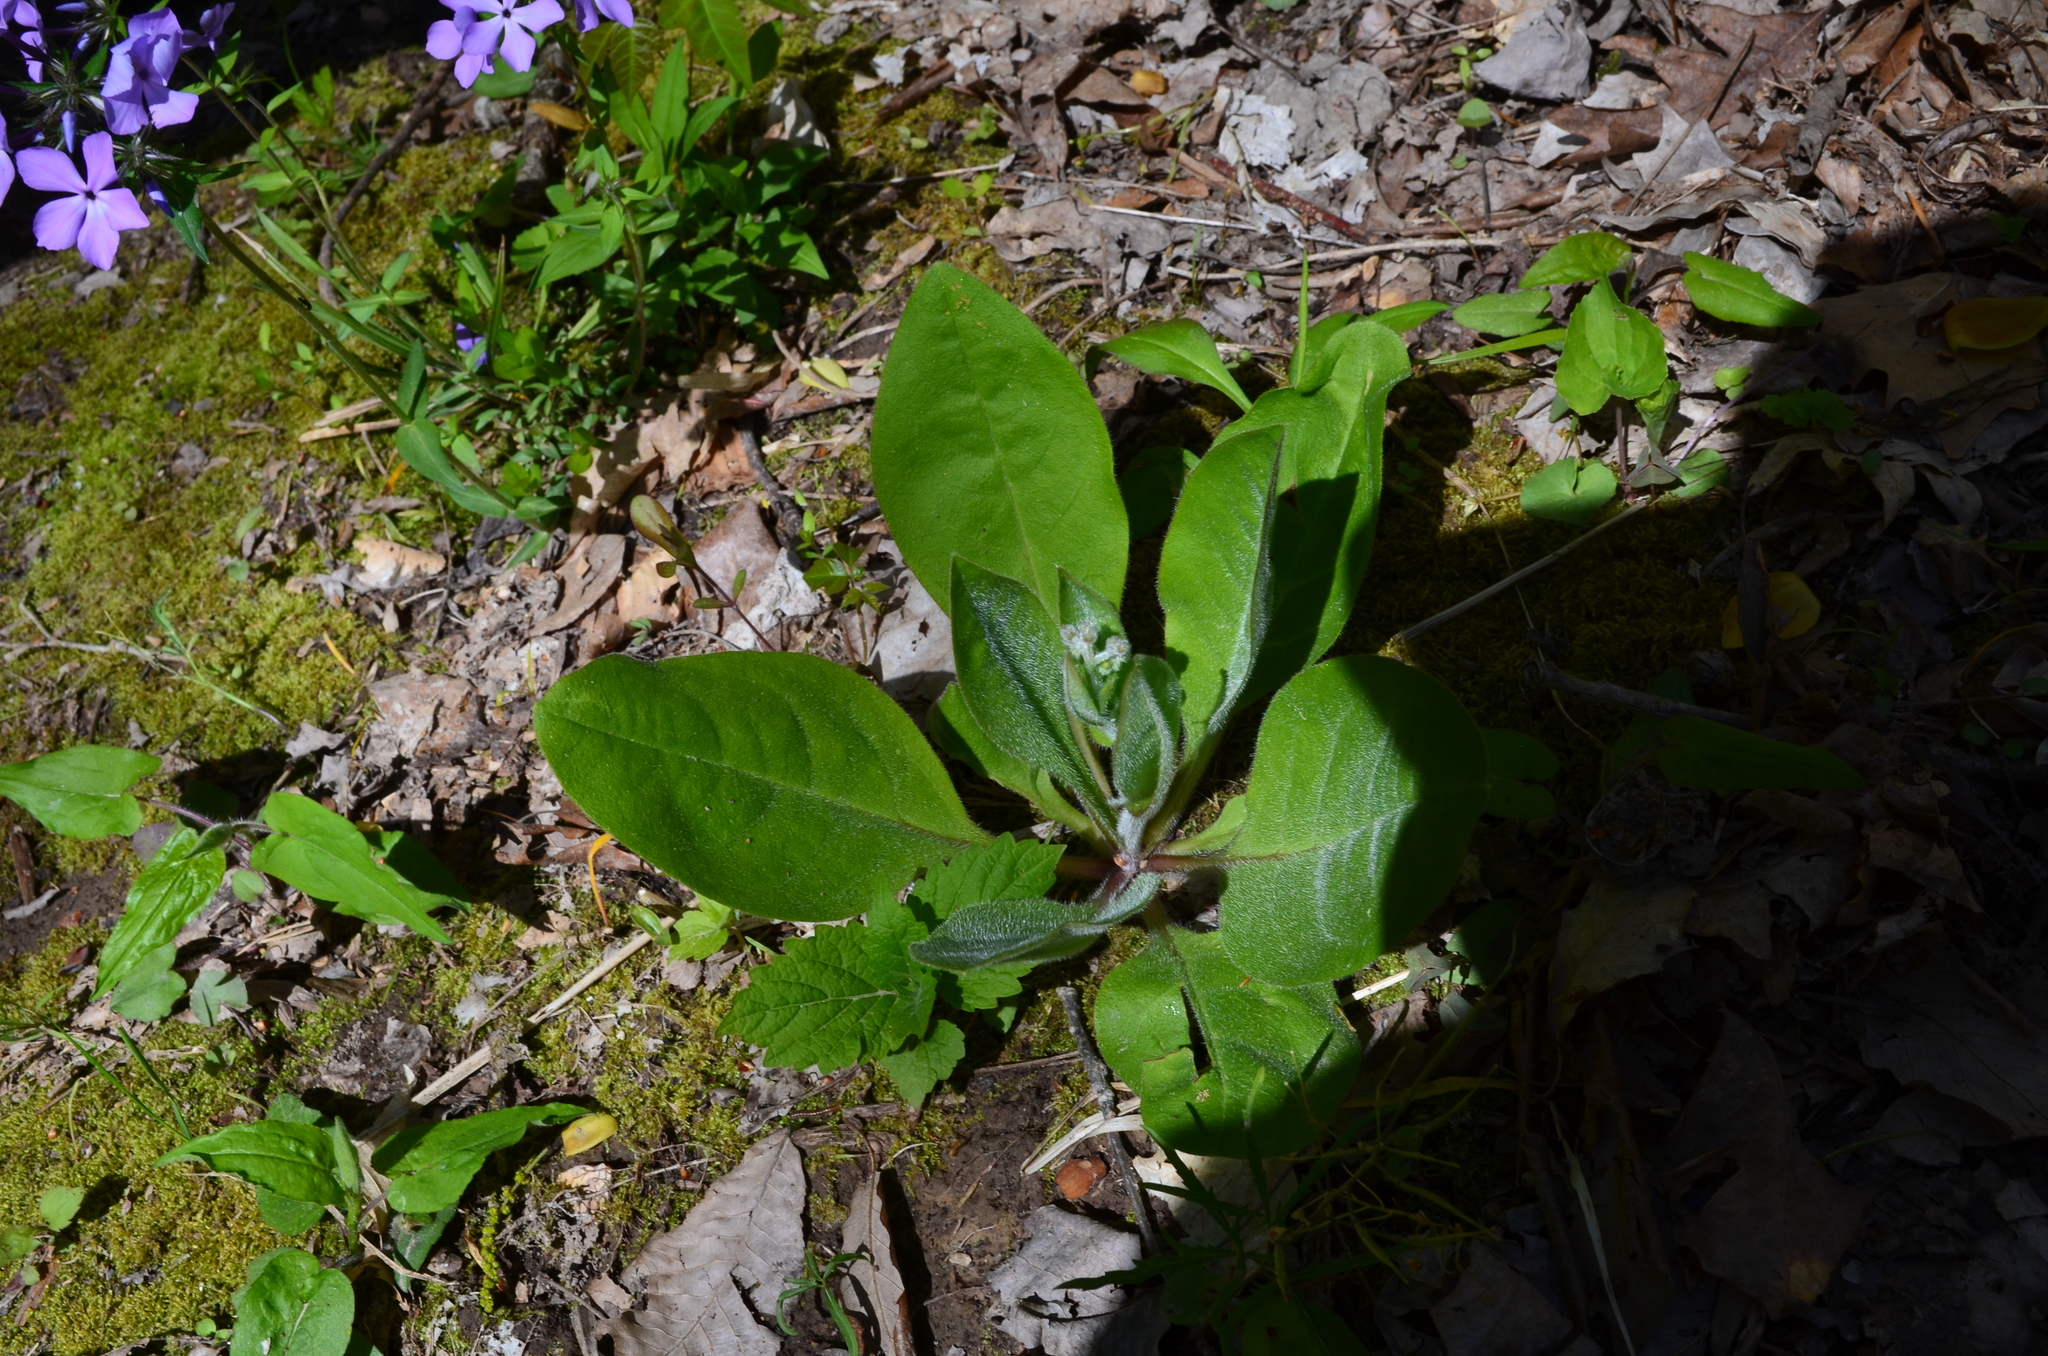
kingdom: Plantae
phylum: Tracheophyta
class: Magnoliopsida
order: Boraginales
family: Boraginaceae
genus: Andersonglossum
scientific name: Andersonglossum virginianum
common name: Wild comfrey
